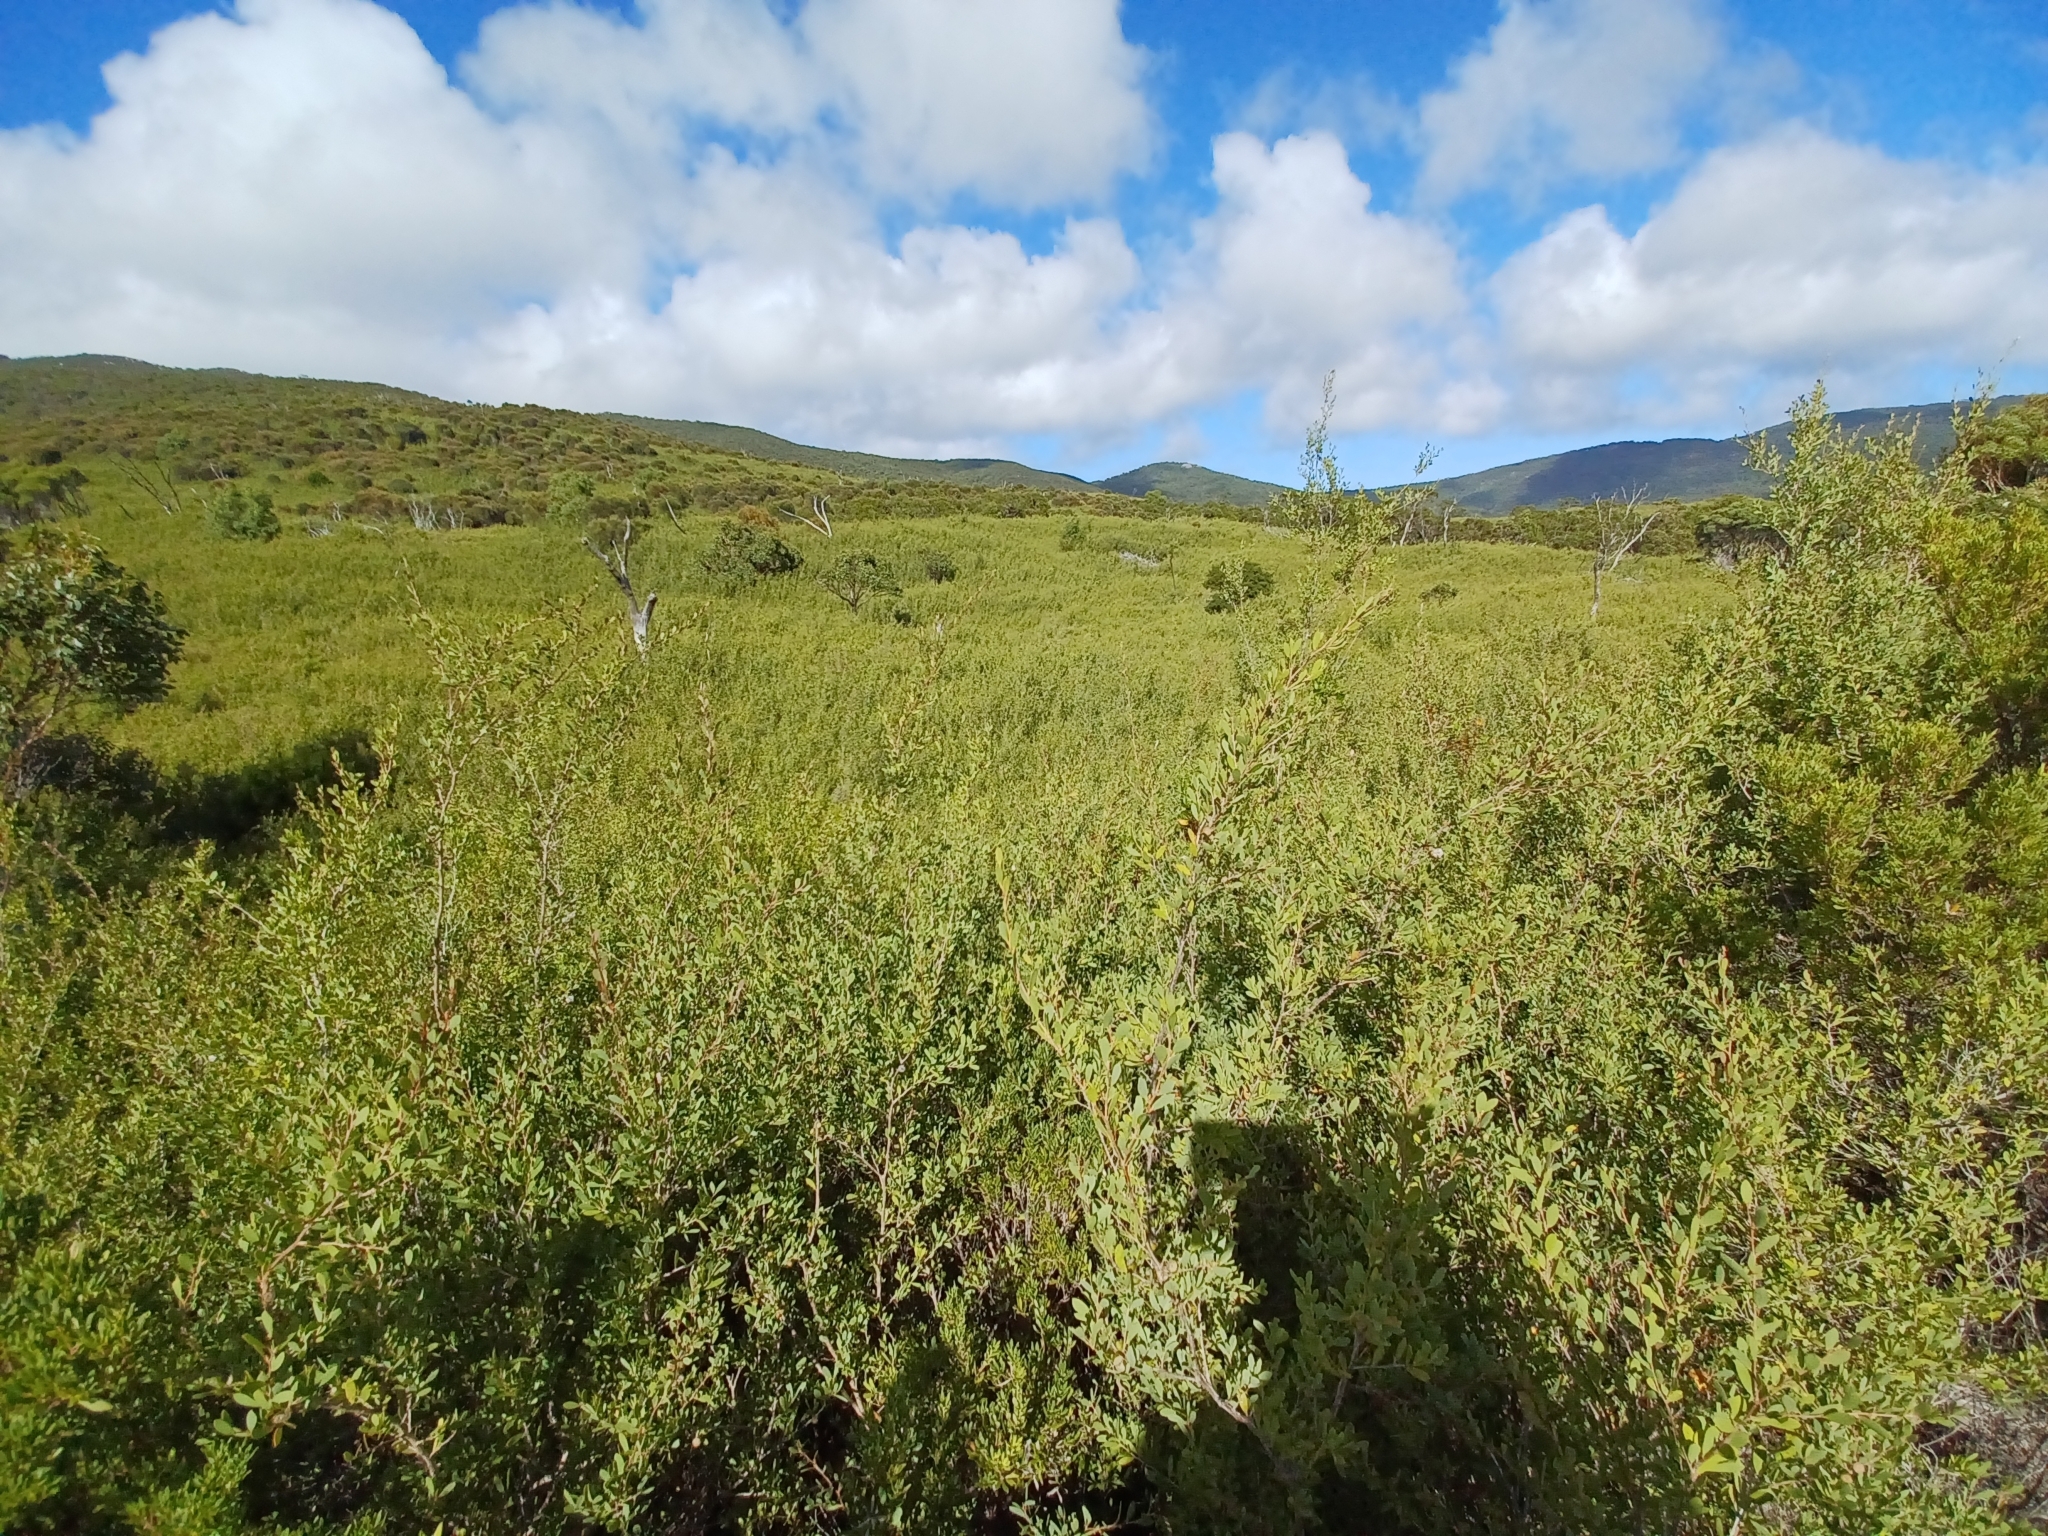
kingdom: Plantae
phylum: Tracheophyta
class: Magnoliopsida
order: Myrtales
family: Myrtaceae
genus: Leptospermum
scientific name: Leptospermum laevigatum
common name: Australian teatree
